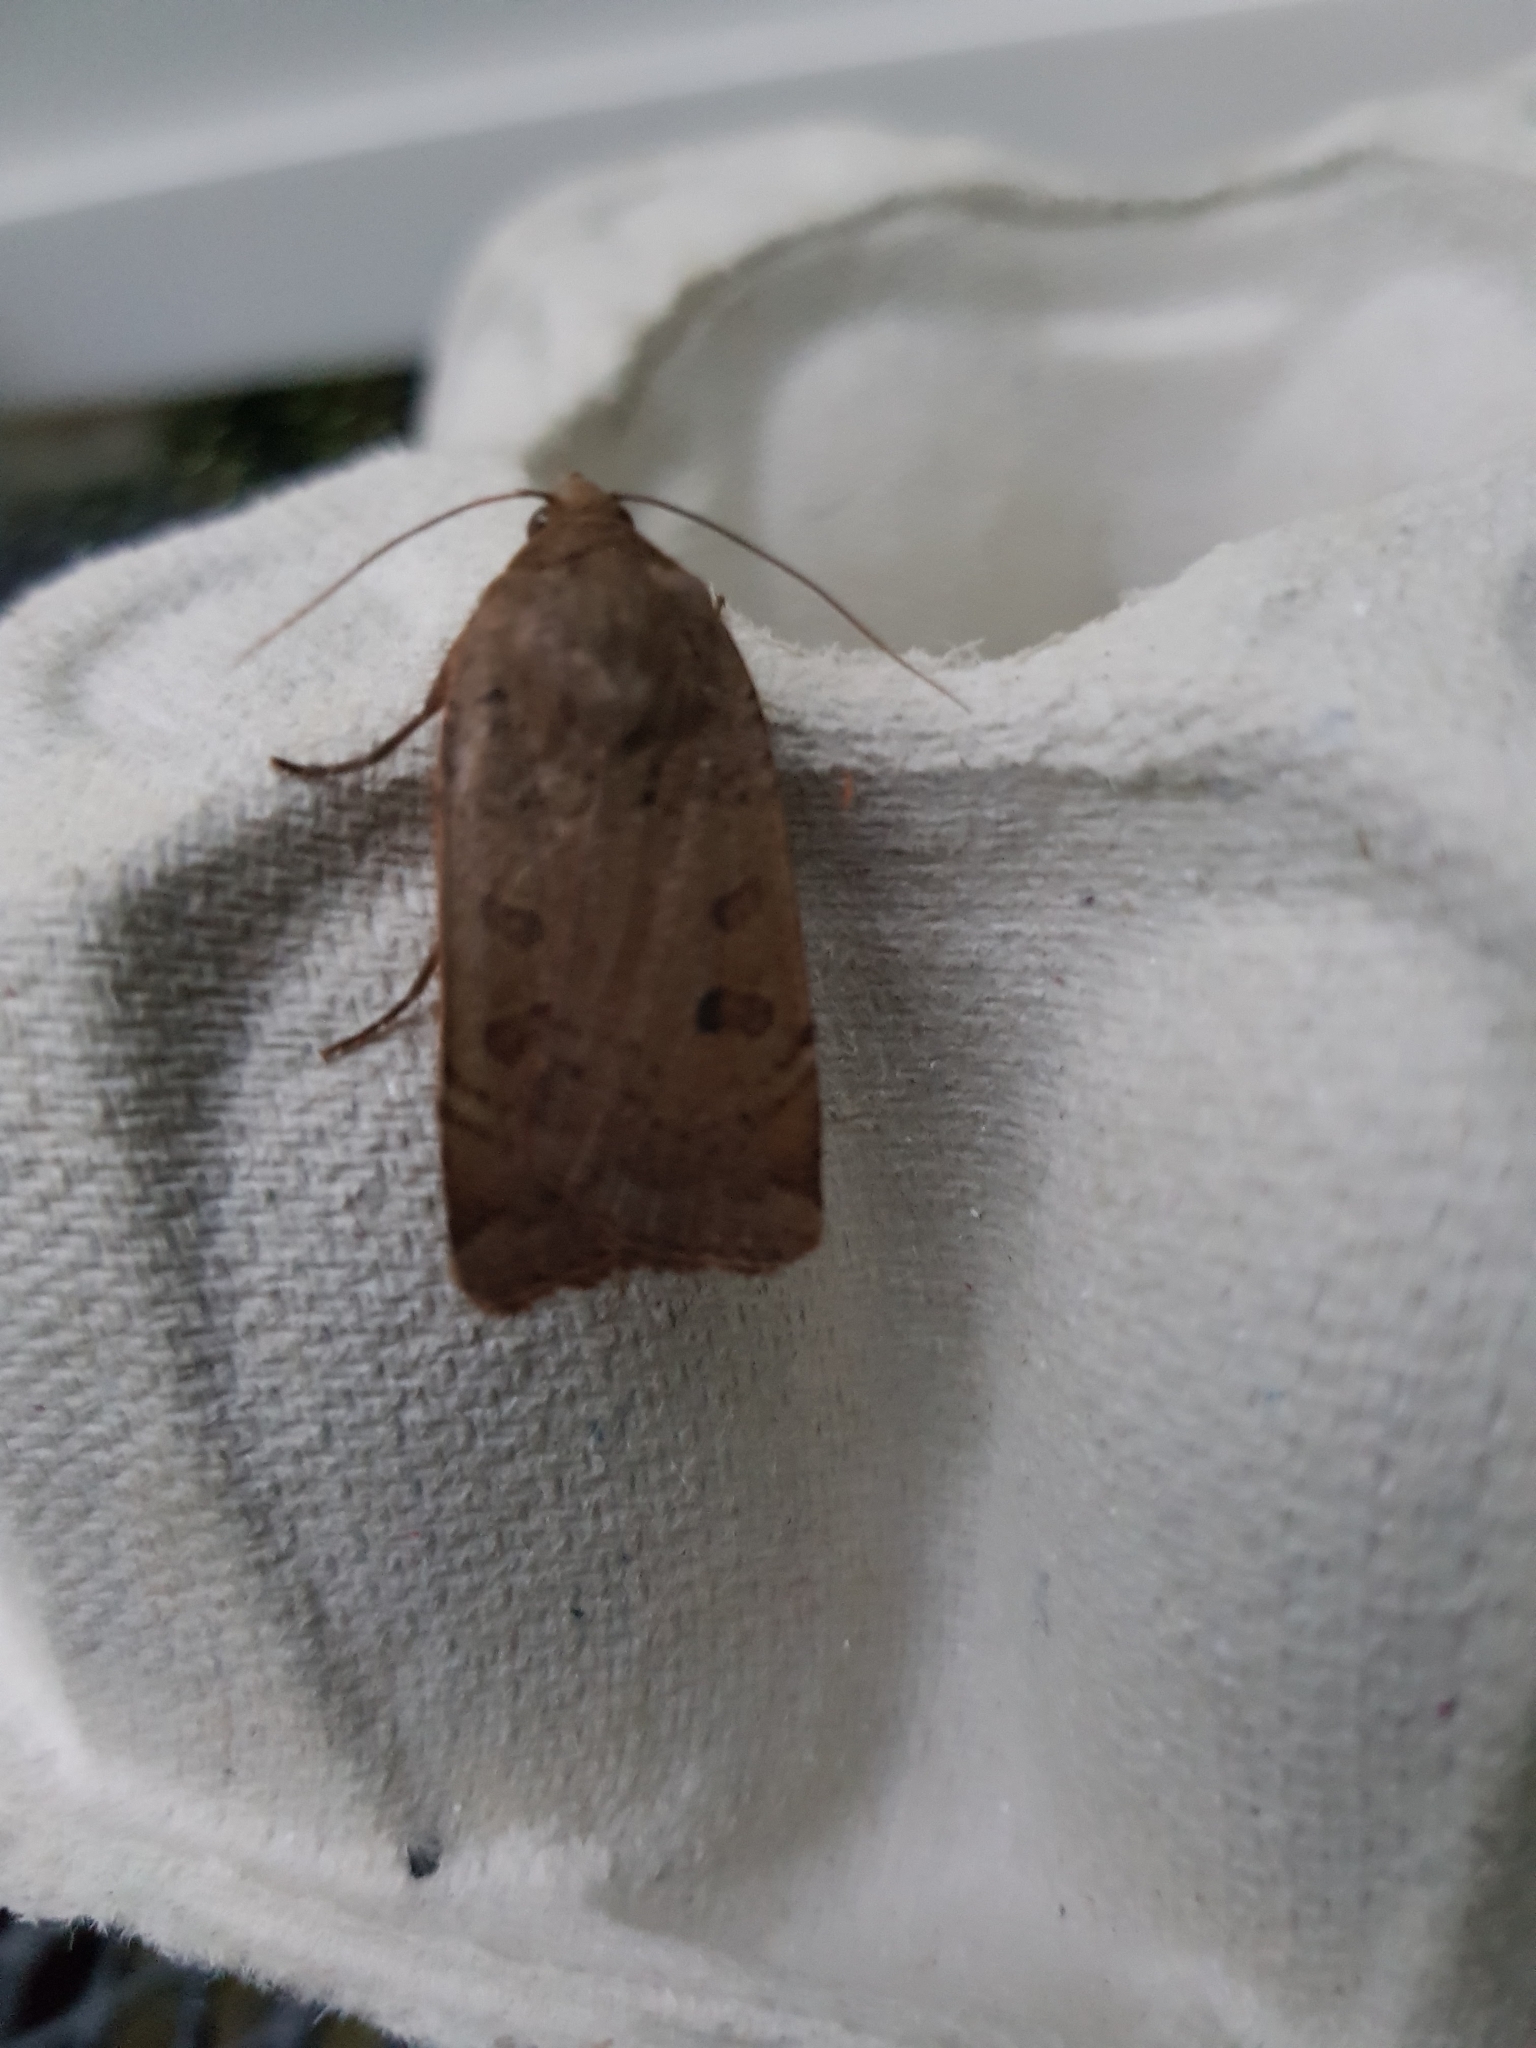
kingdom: Animalia
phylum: Arthropoda
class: Insecta
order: Lepidoptera
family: Noctuidae
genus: Noctua
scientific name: Noctua comes
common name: Lesser yellow underwing
